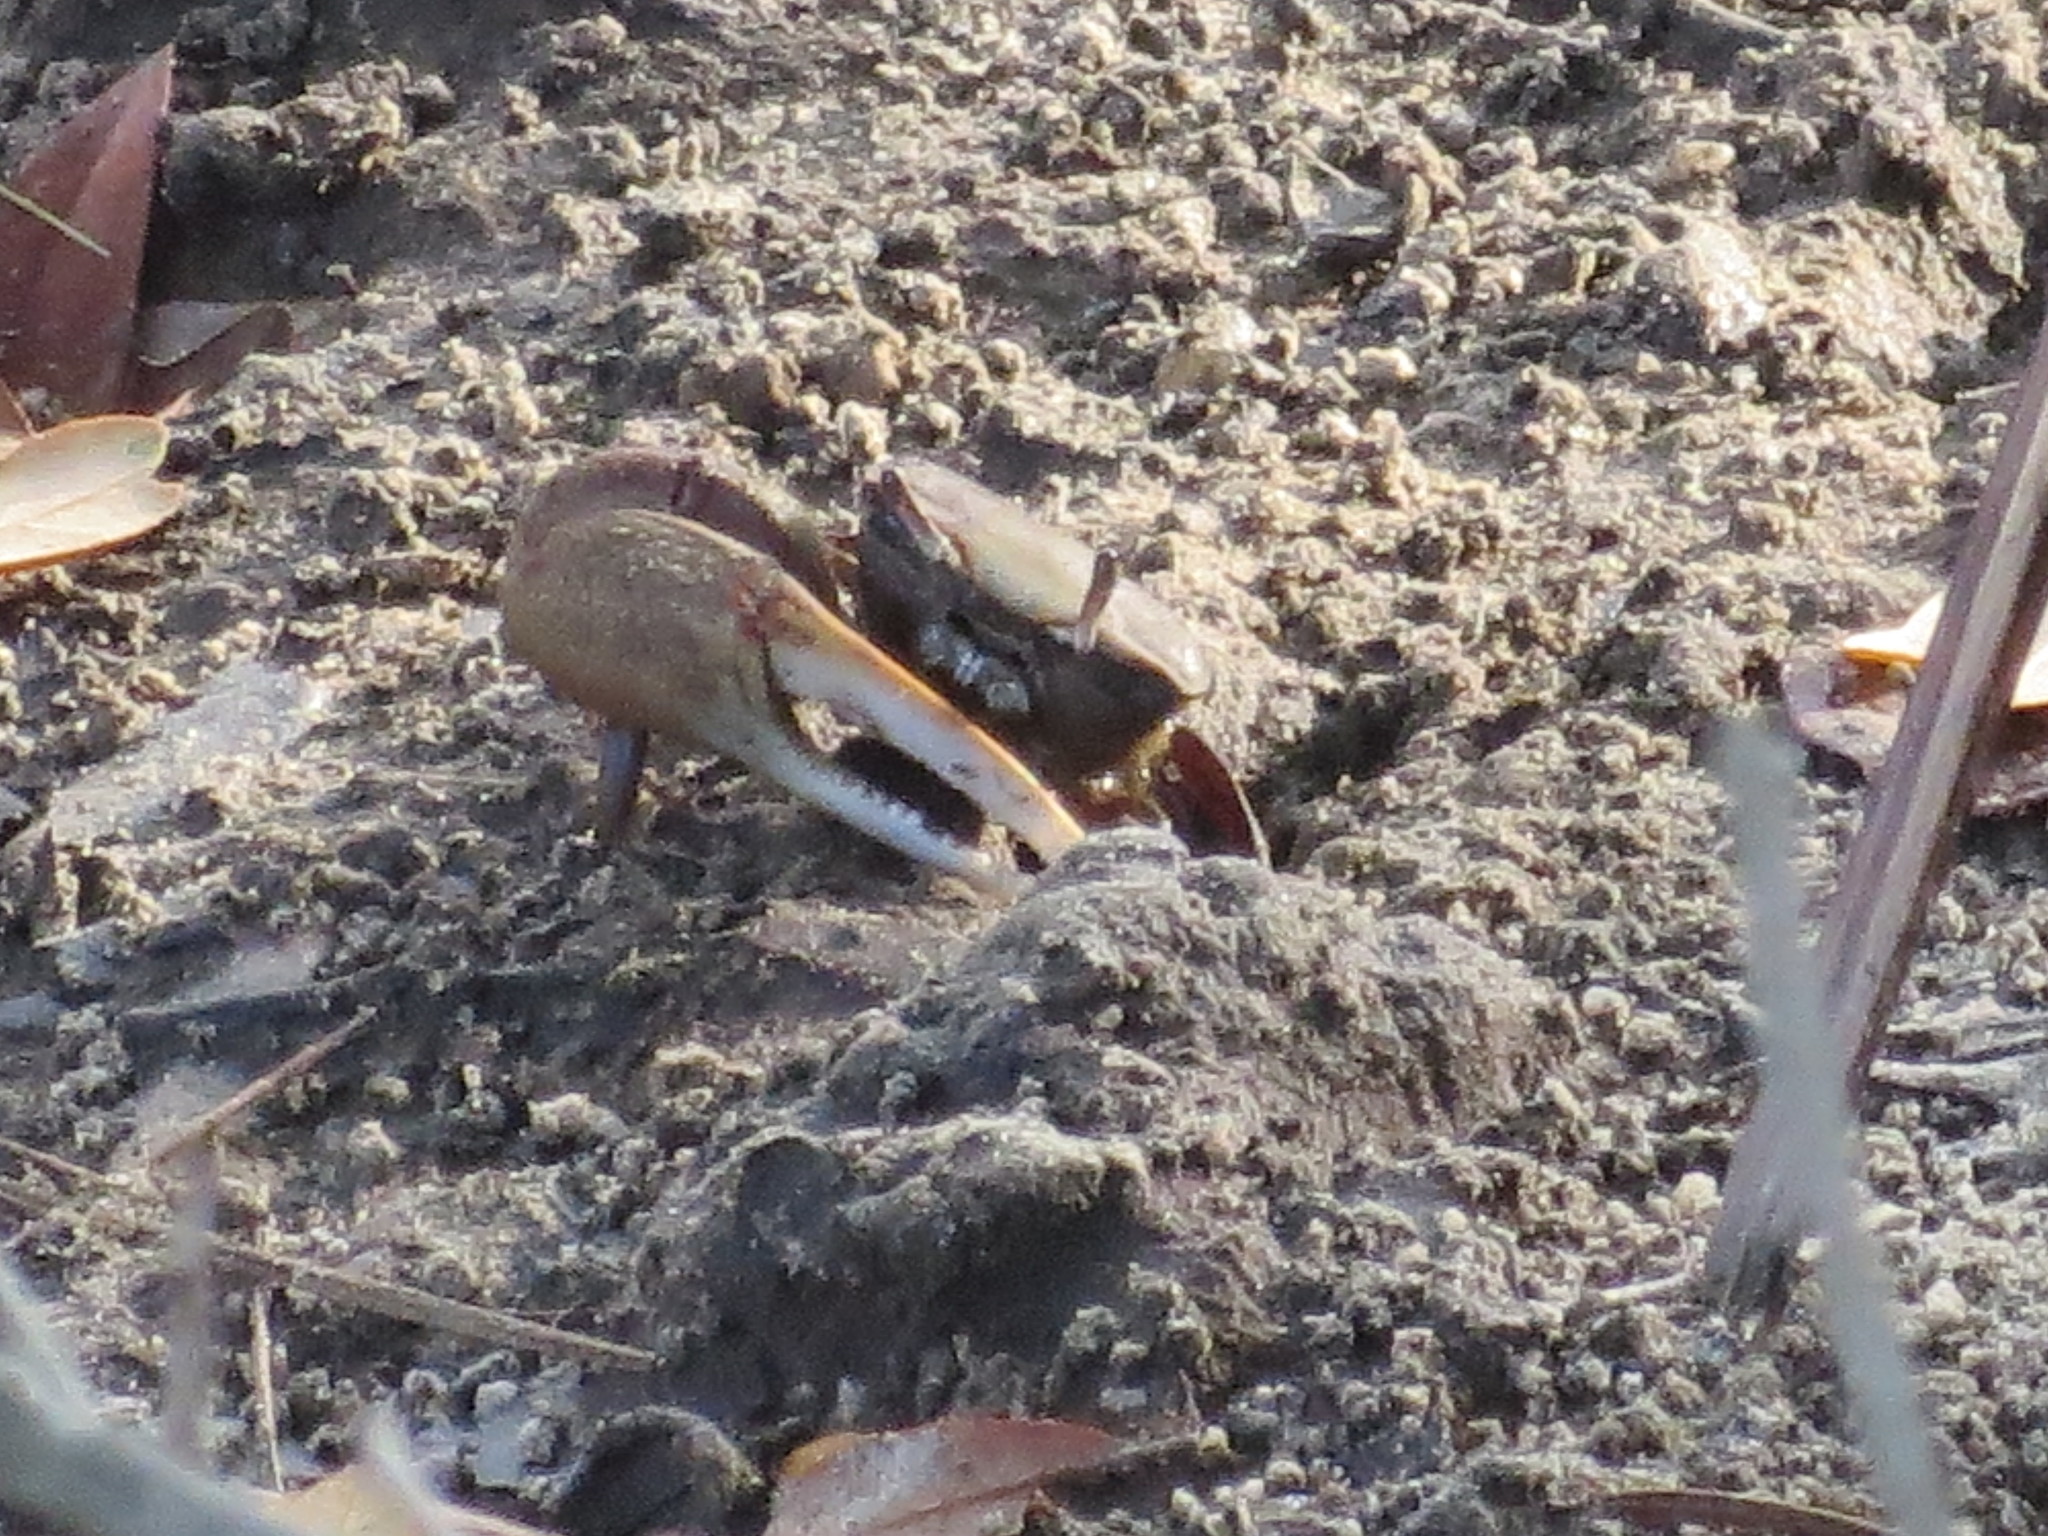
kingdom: Animalia
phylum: Arthropoda
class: Malacostraca
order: Decapoda
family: Ocypodidae
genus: Minuca
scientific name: Minuca minax
